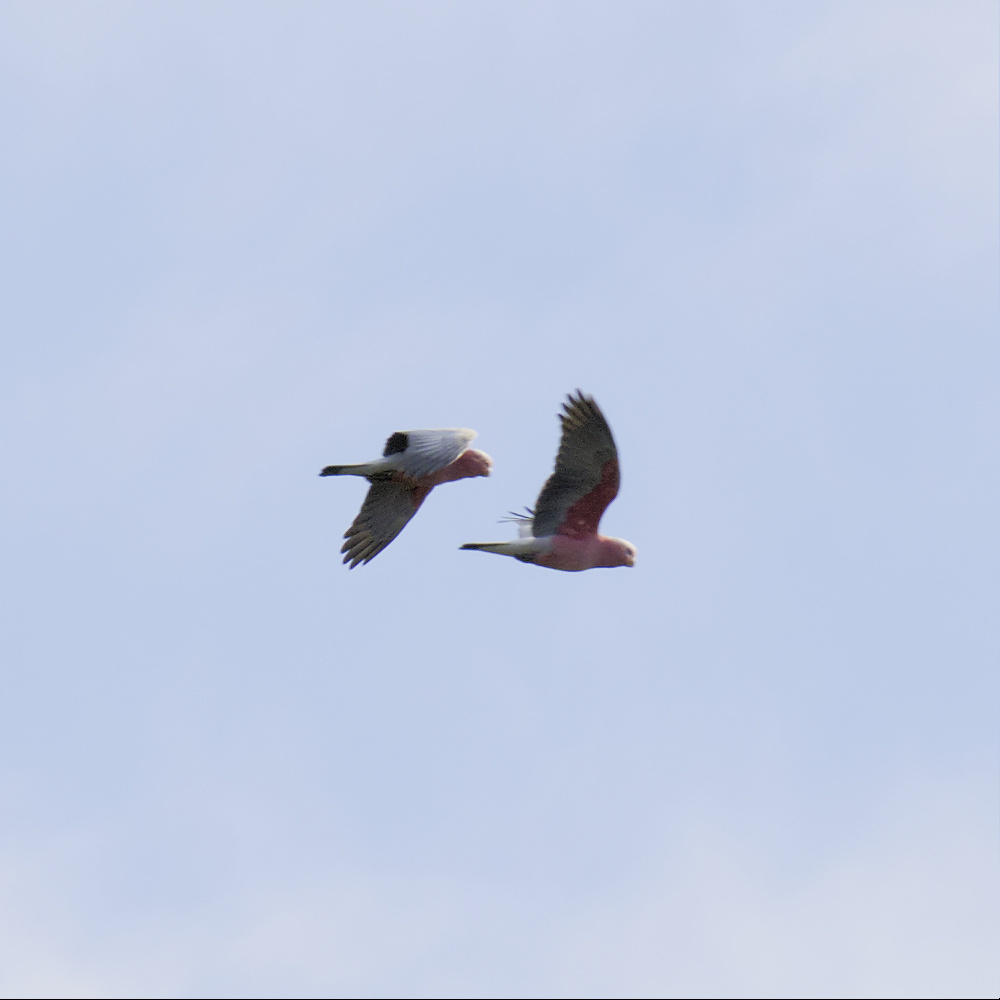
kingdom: Animalia
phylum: Chordata
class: Aves
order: Psittaciformes
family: Psittacidae
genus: Eolophus
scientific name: Eolophus roseicapilla
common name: Galah
